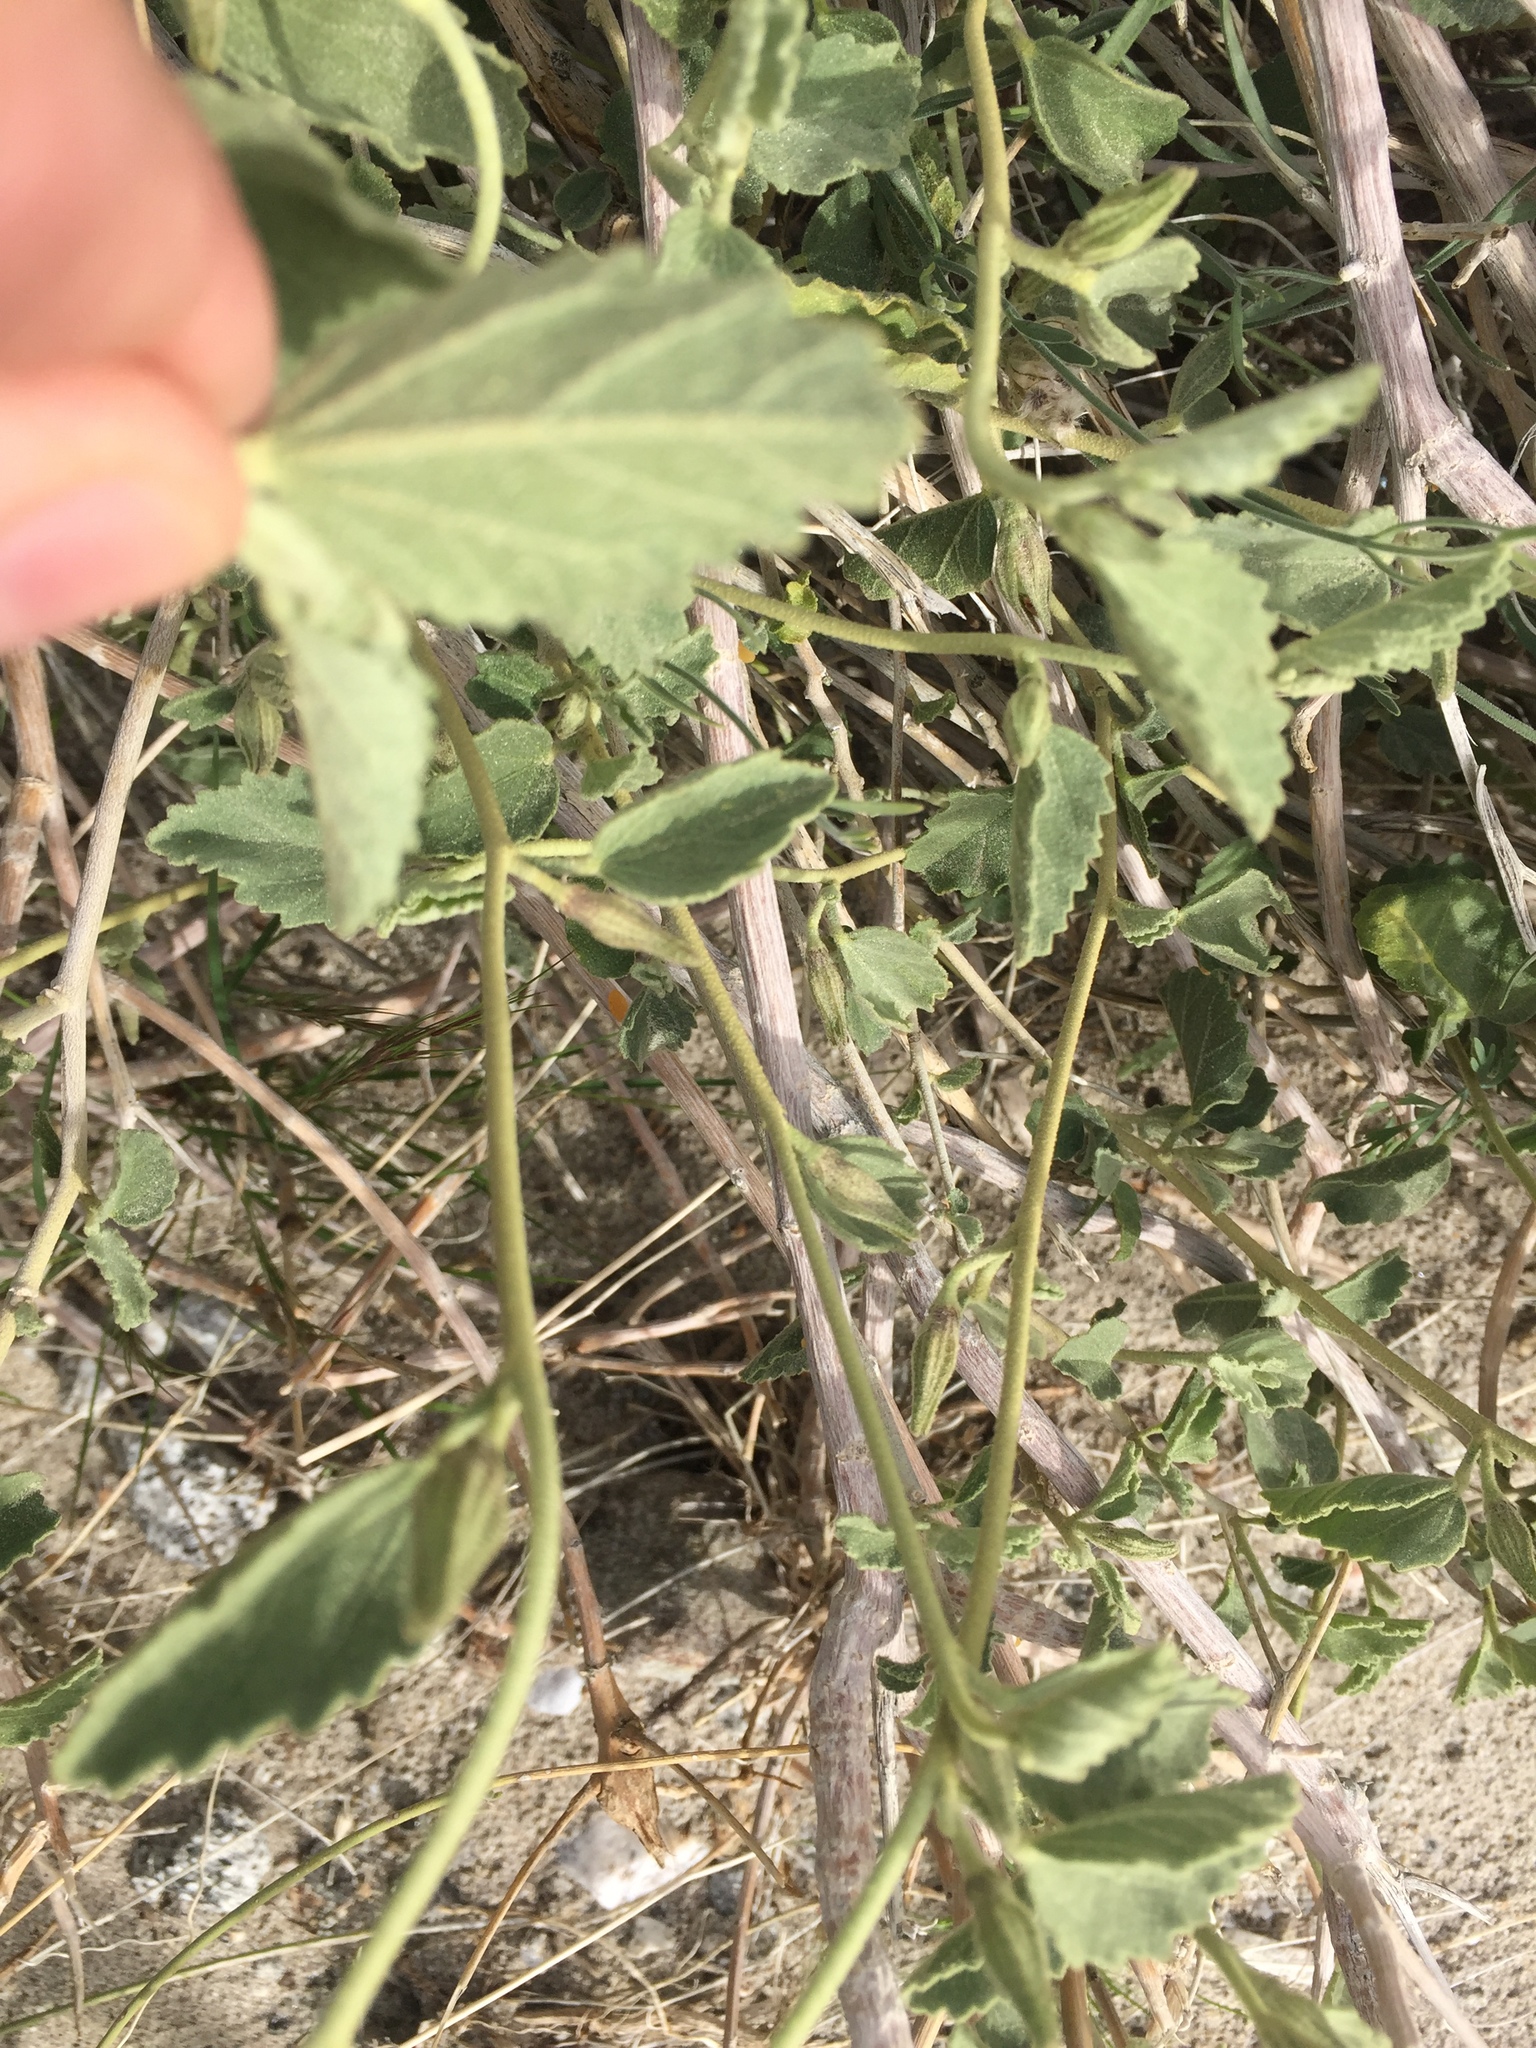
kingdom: Plantae
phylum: Tracheophyta
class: Magnoliopsida
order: Malvales
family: Malvaceae
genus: Hibiscus
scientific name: Hibiscus denudatus
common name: Paleface
